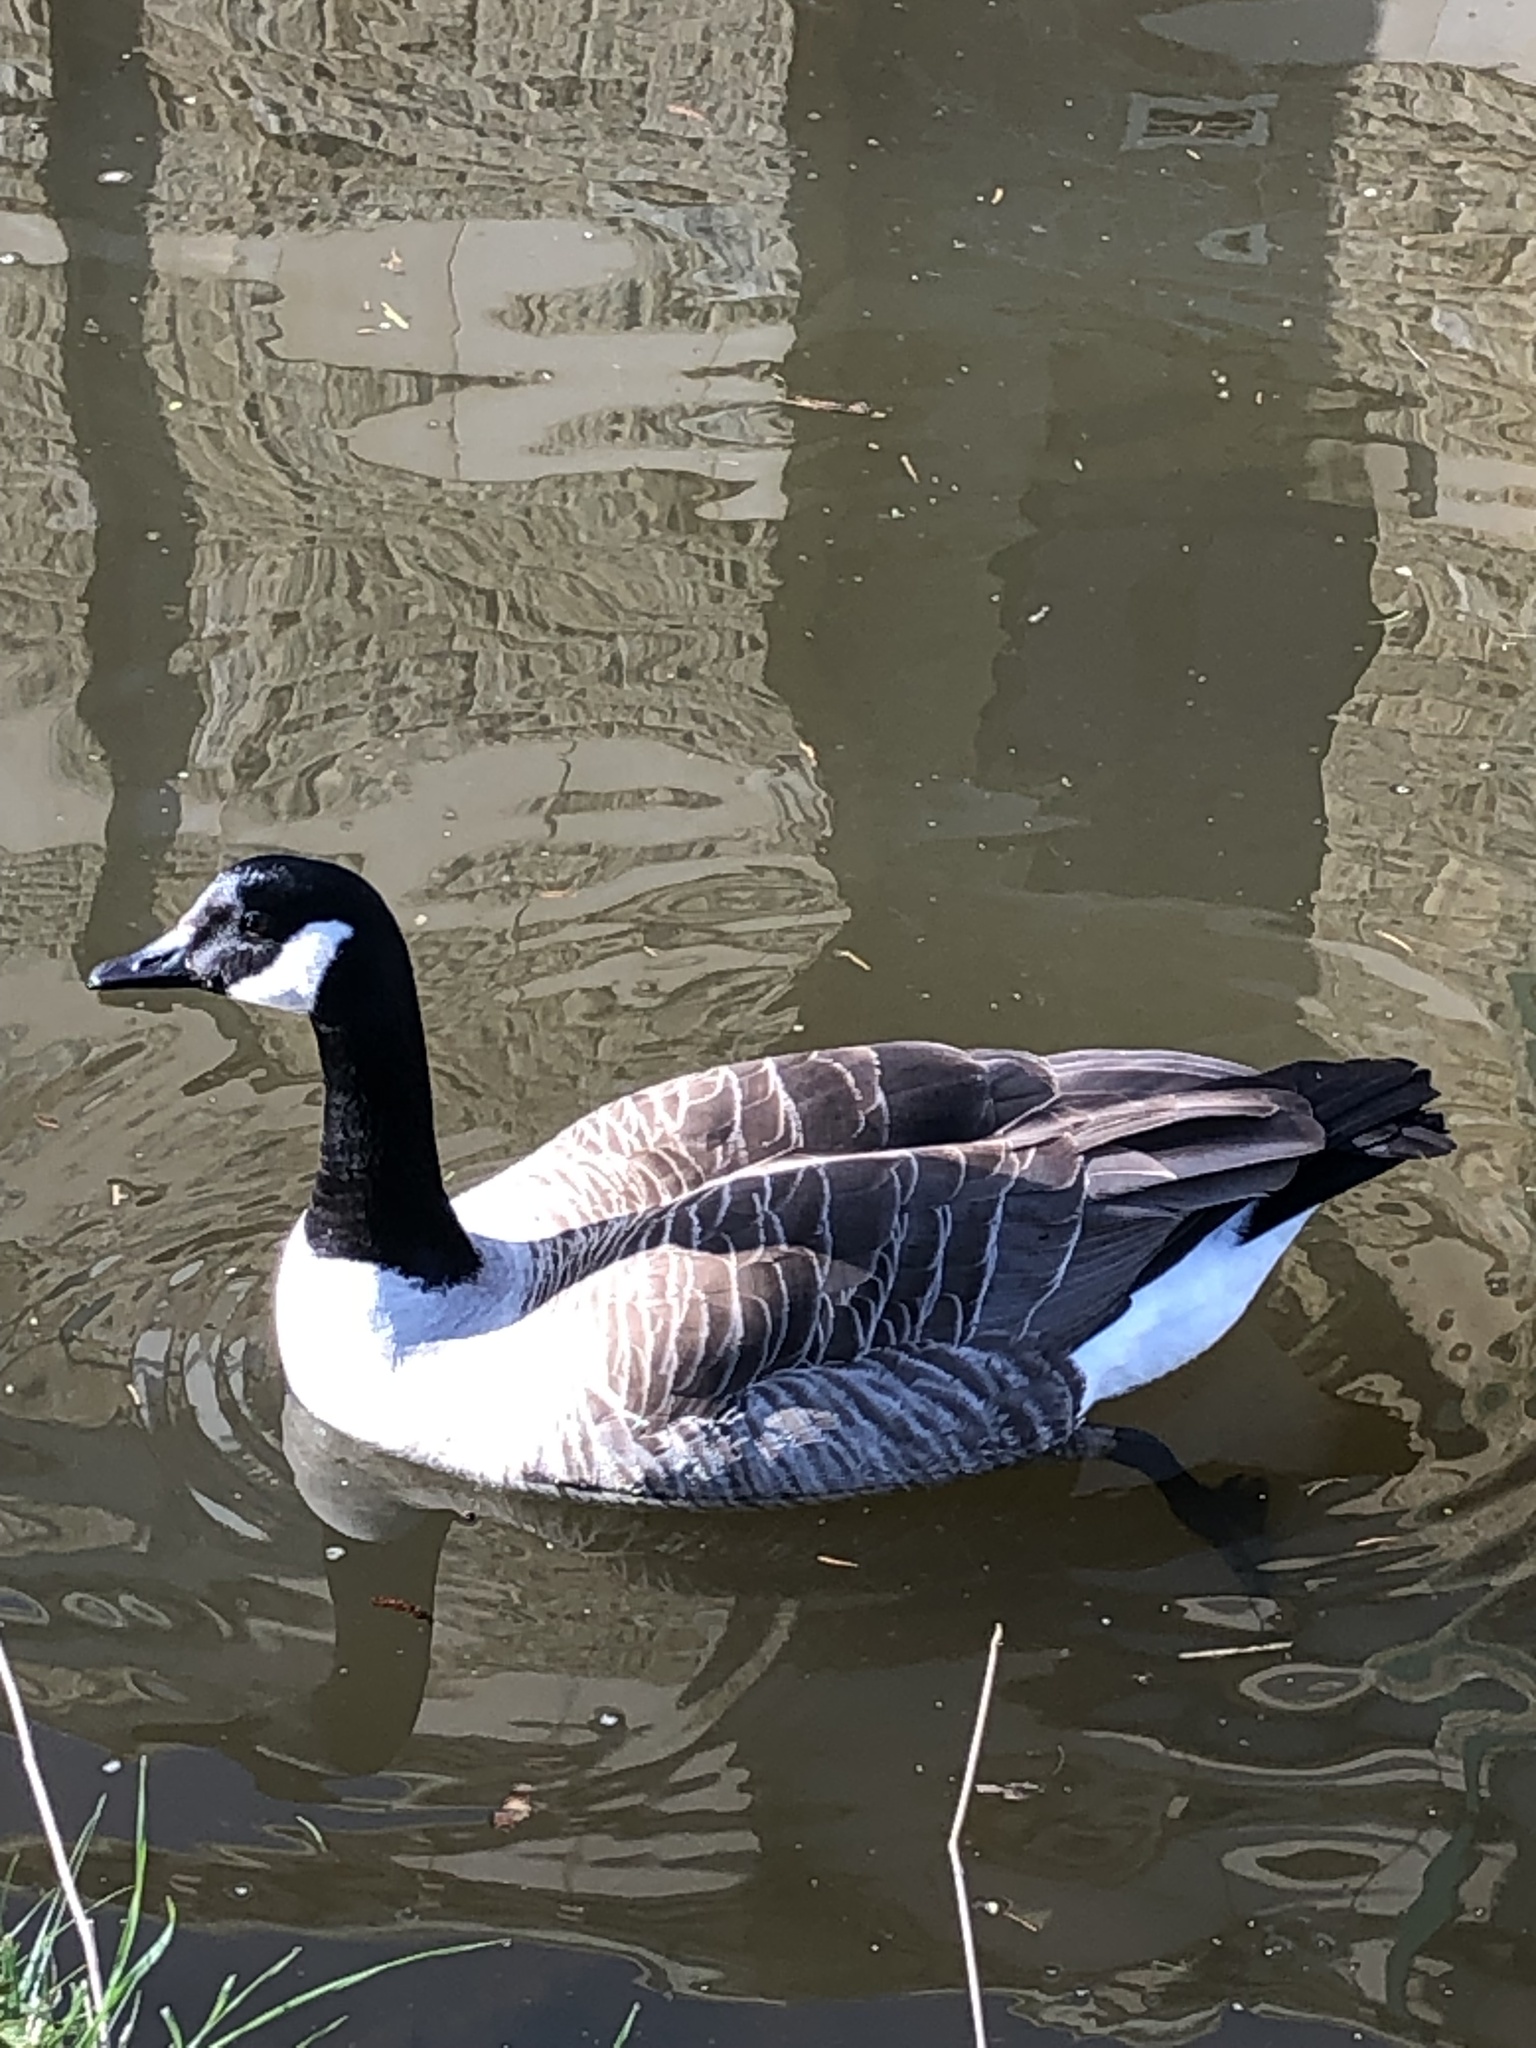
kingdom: Animalia
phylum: Chordata
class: Aves
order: Anseriformes
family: Anatidae
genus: Branta
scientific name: Branta canadensis
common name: Canada goose
